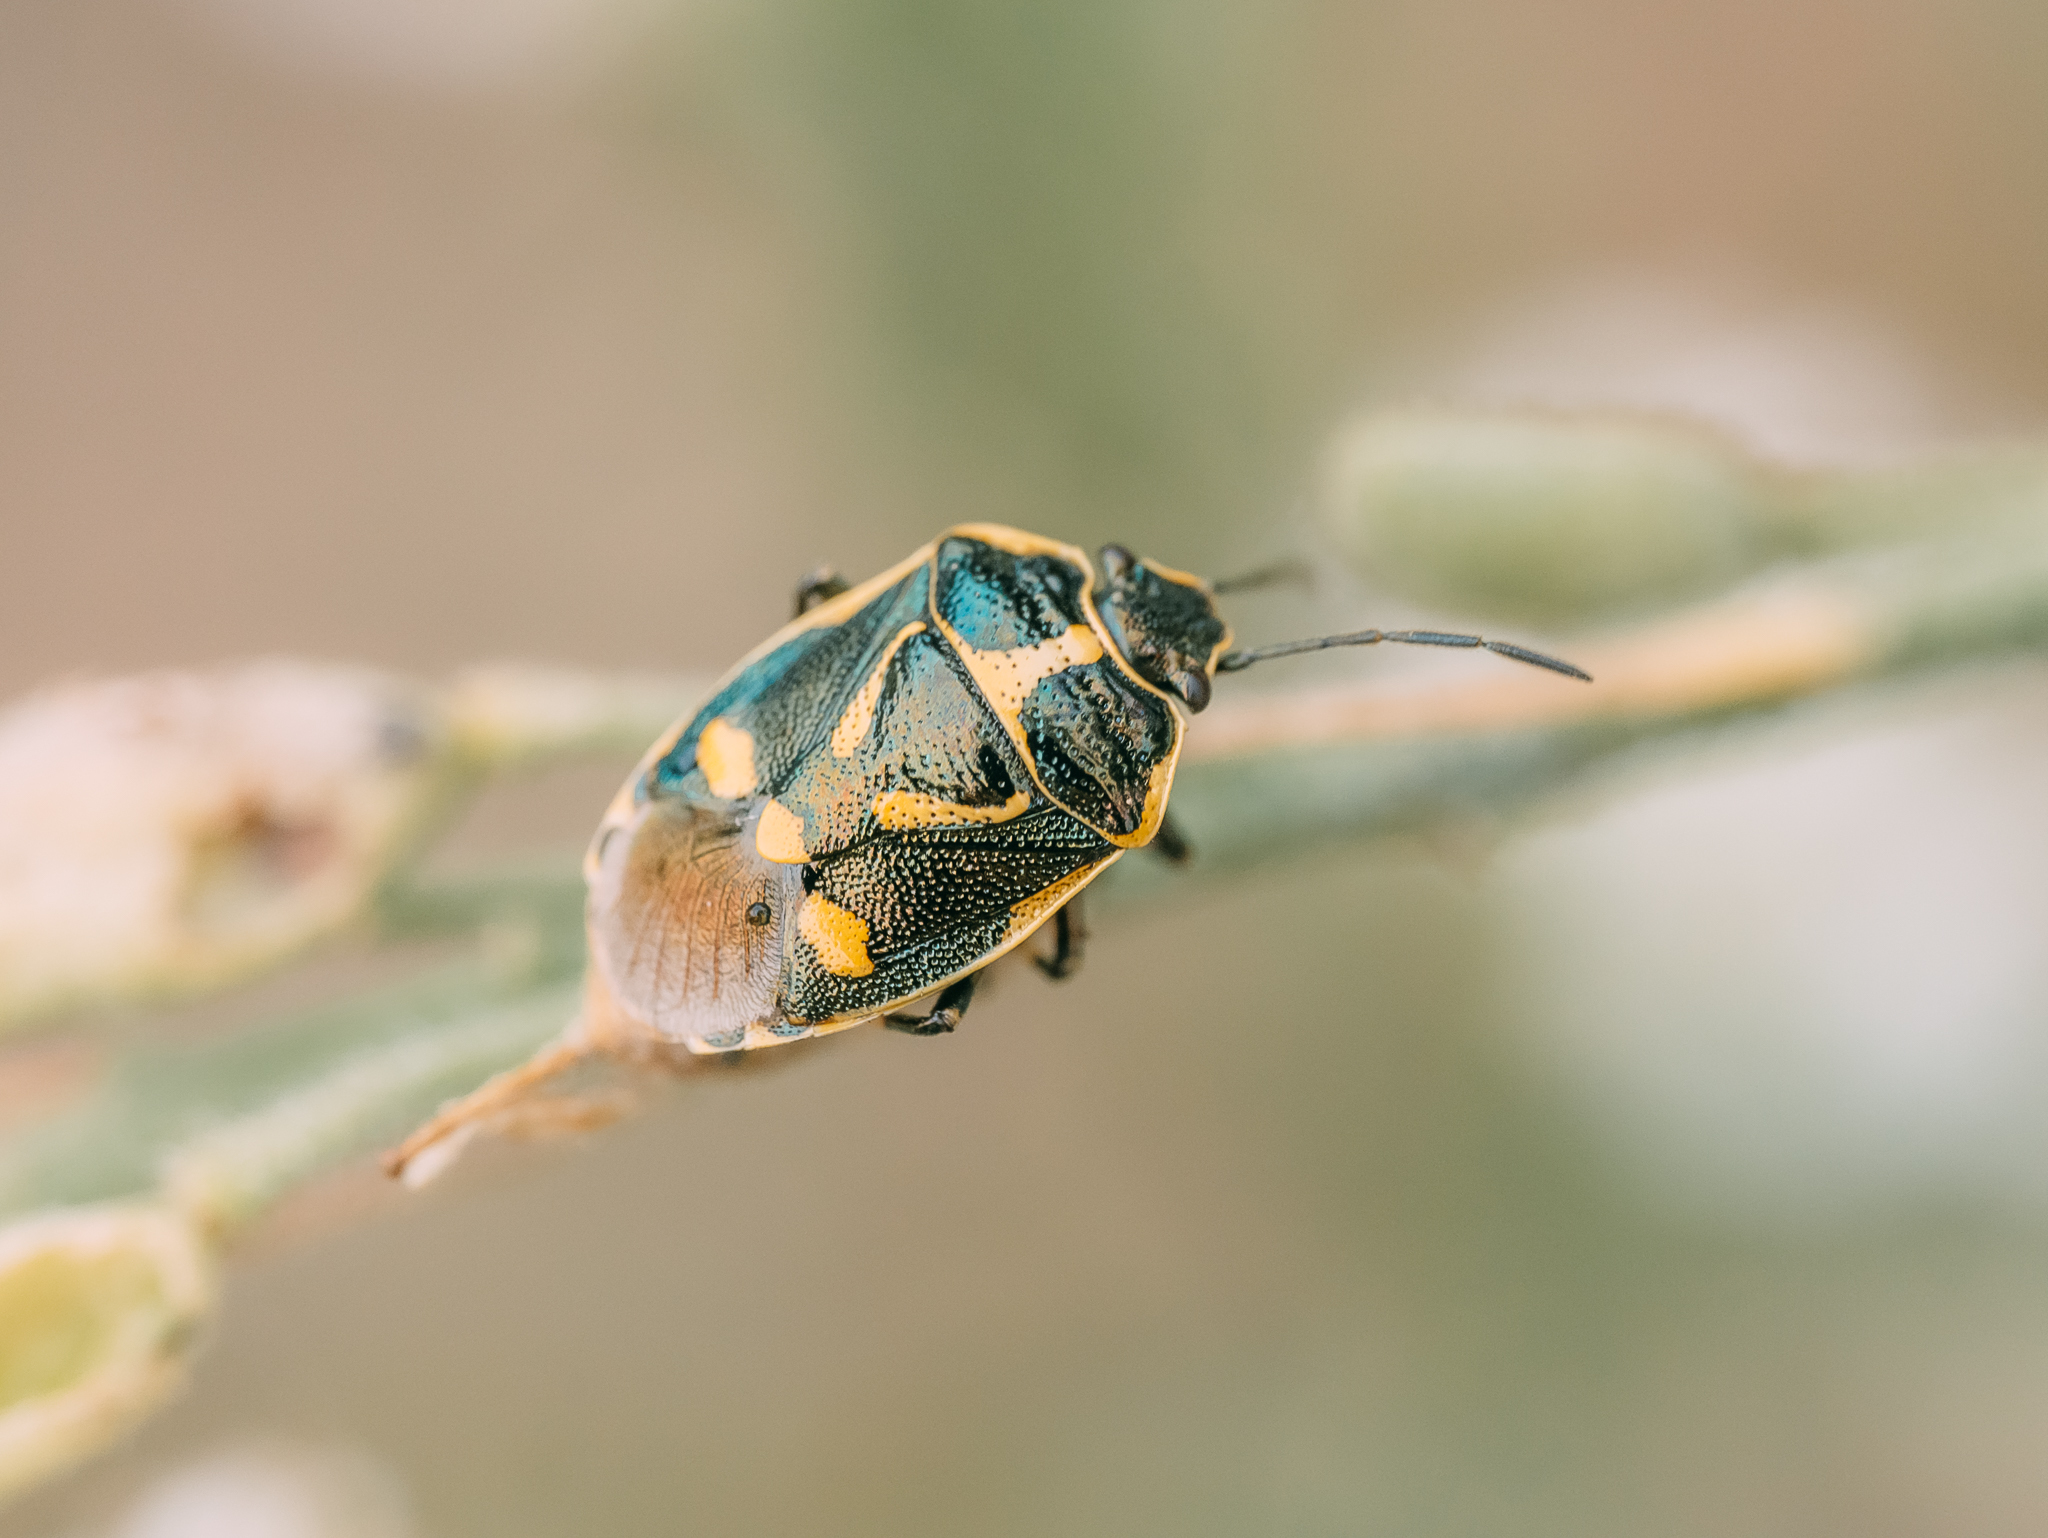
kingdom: Animalia
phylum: Arthropoda
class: Insecta
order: Hemiptera
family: Pentatomidae
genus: Eurydema
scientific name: Eurydema oleracea
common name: Cabbage bug
